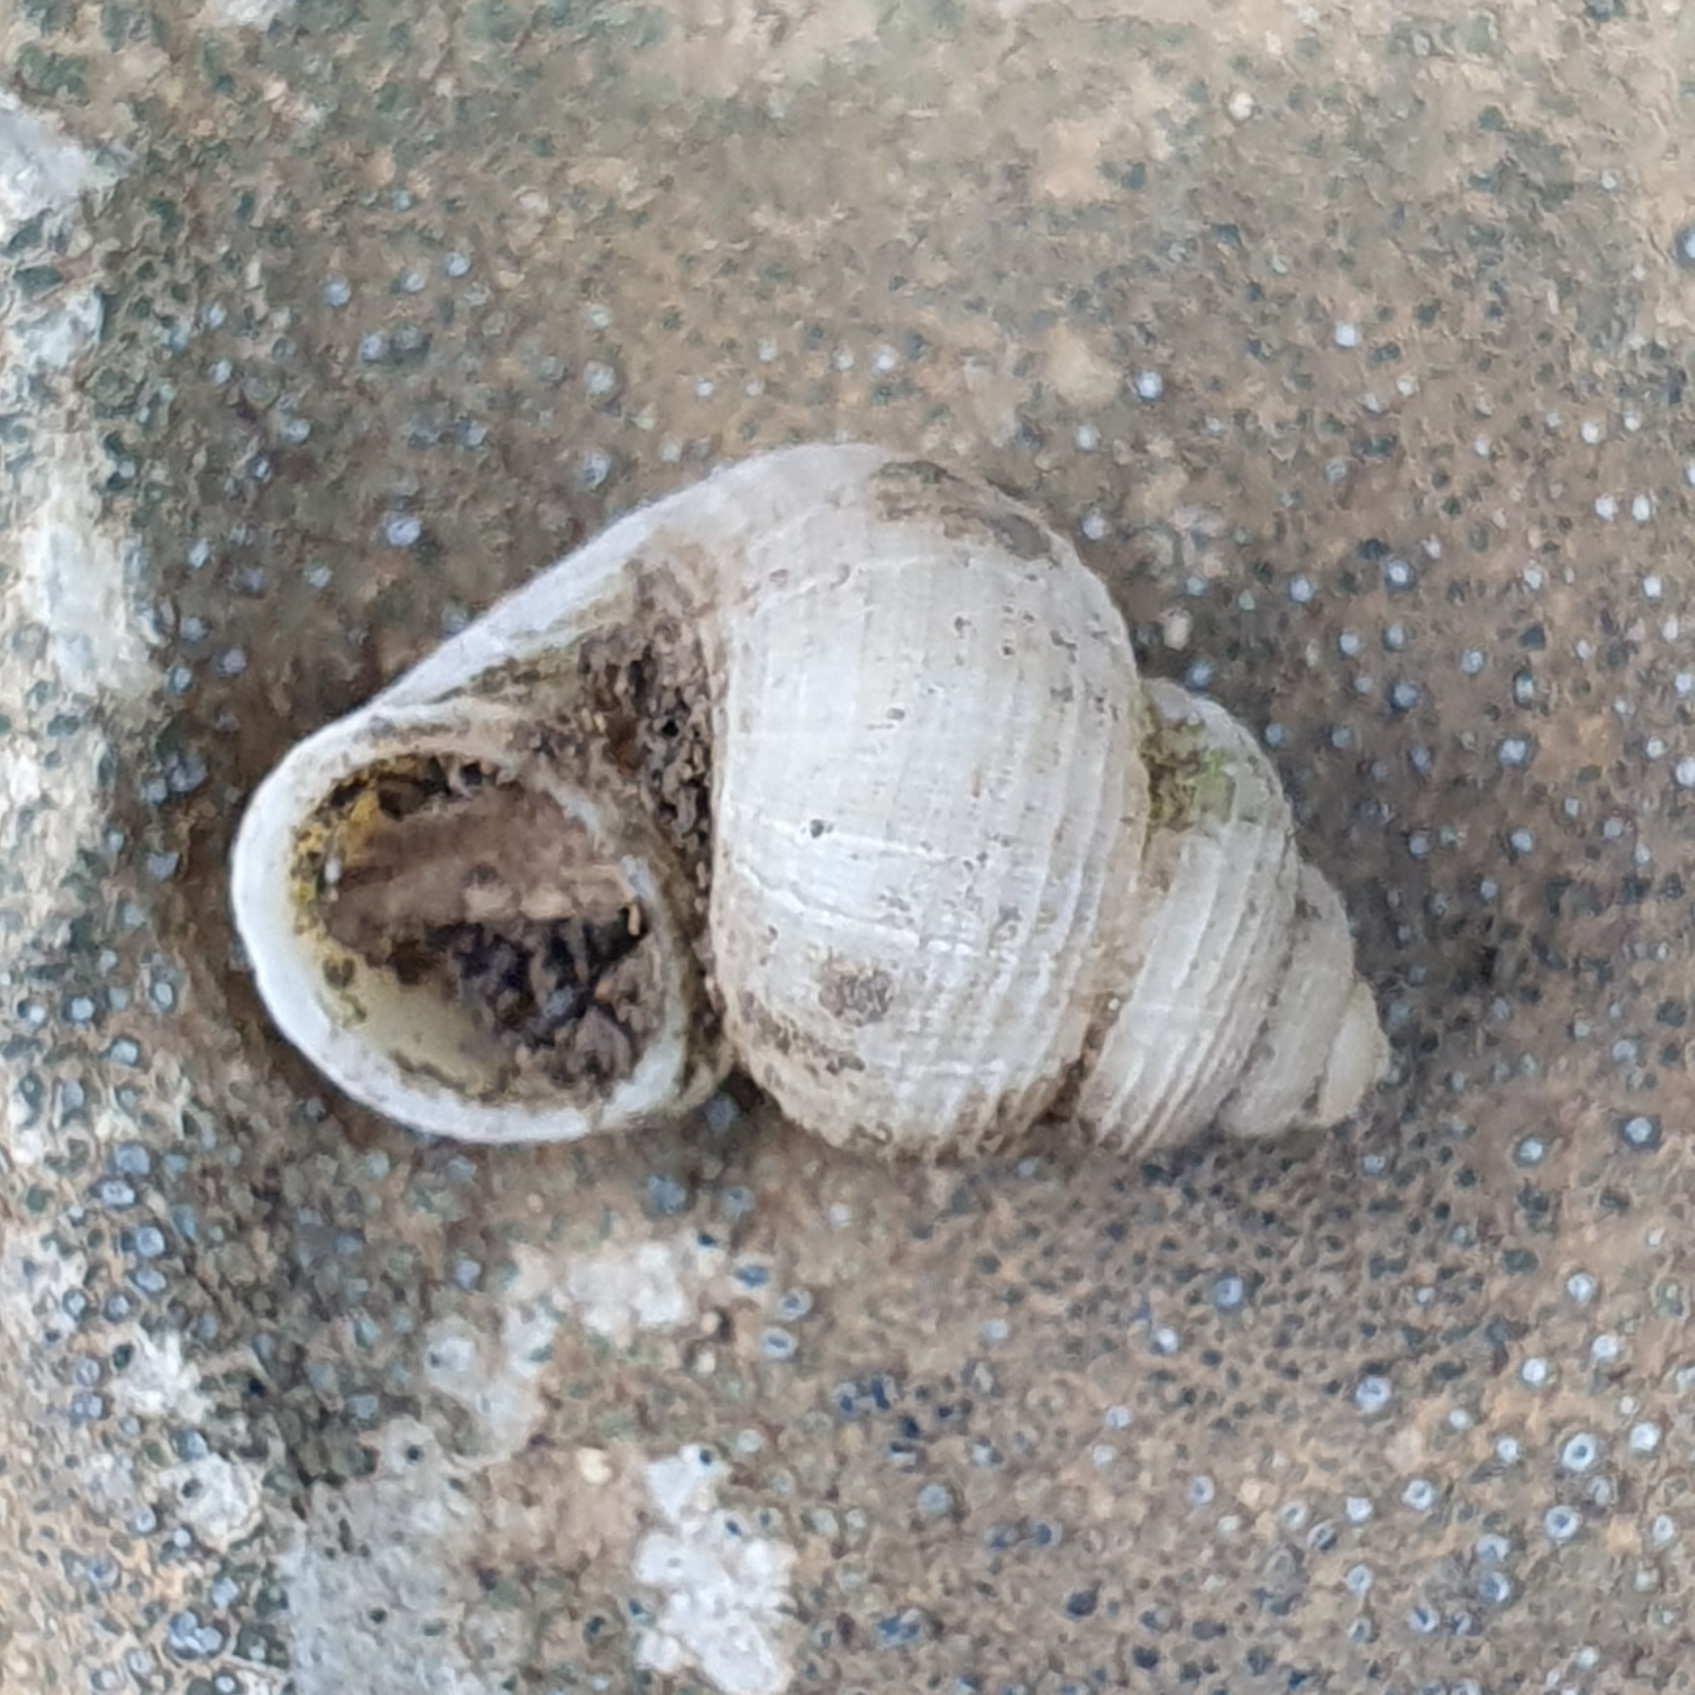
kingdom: Animalia
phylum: Mollusca
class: Gastropoda
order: Littorinimorpha
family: Pomatiidae
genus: Tudorella
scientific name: Tudorella sulcata
